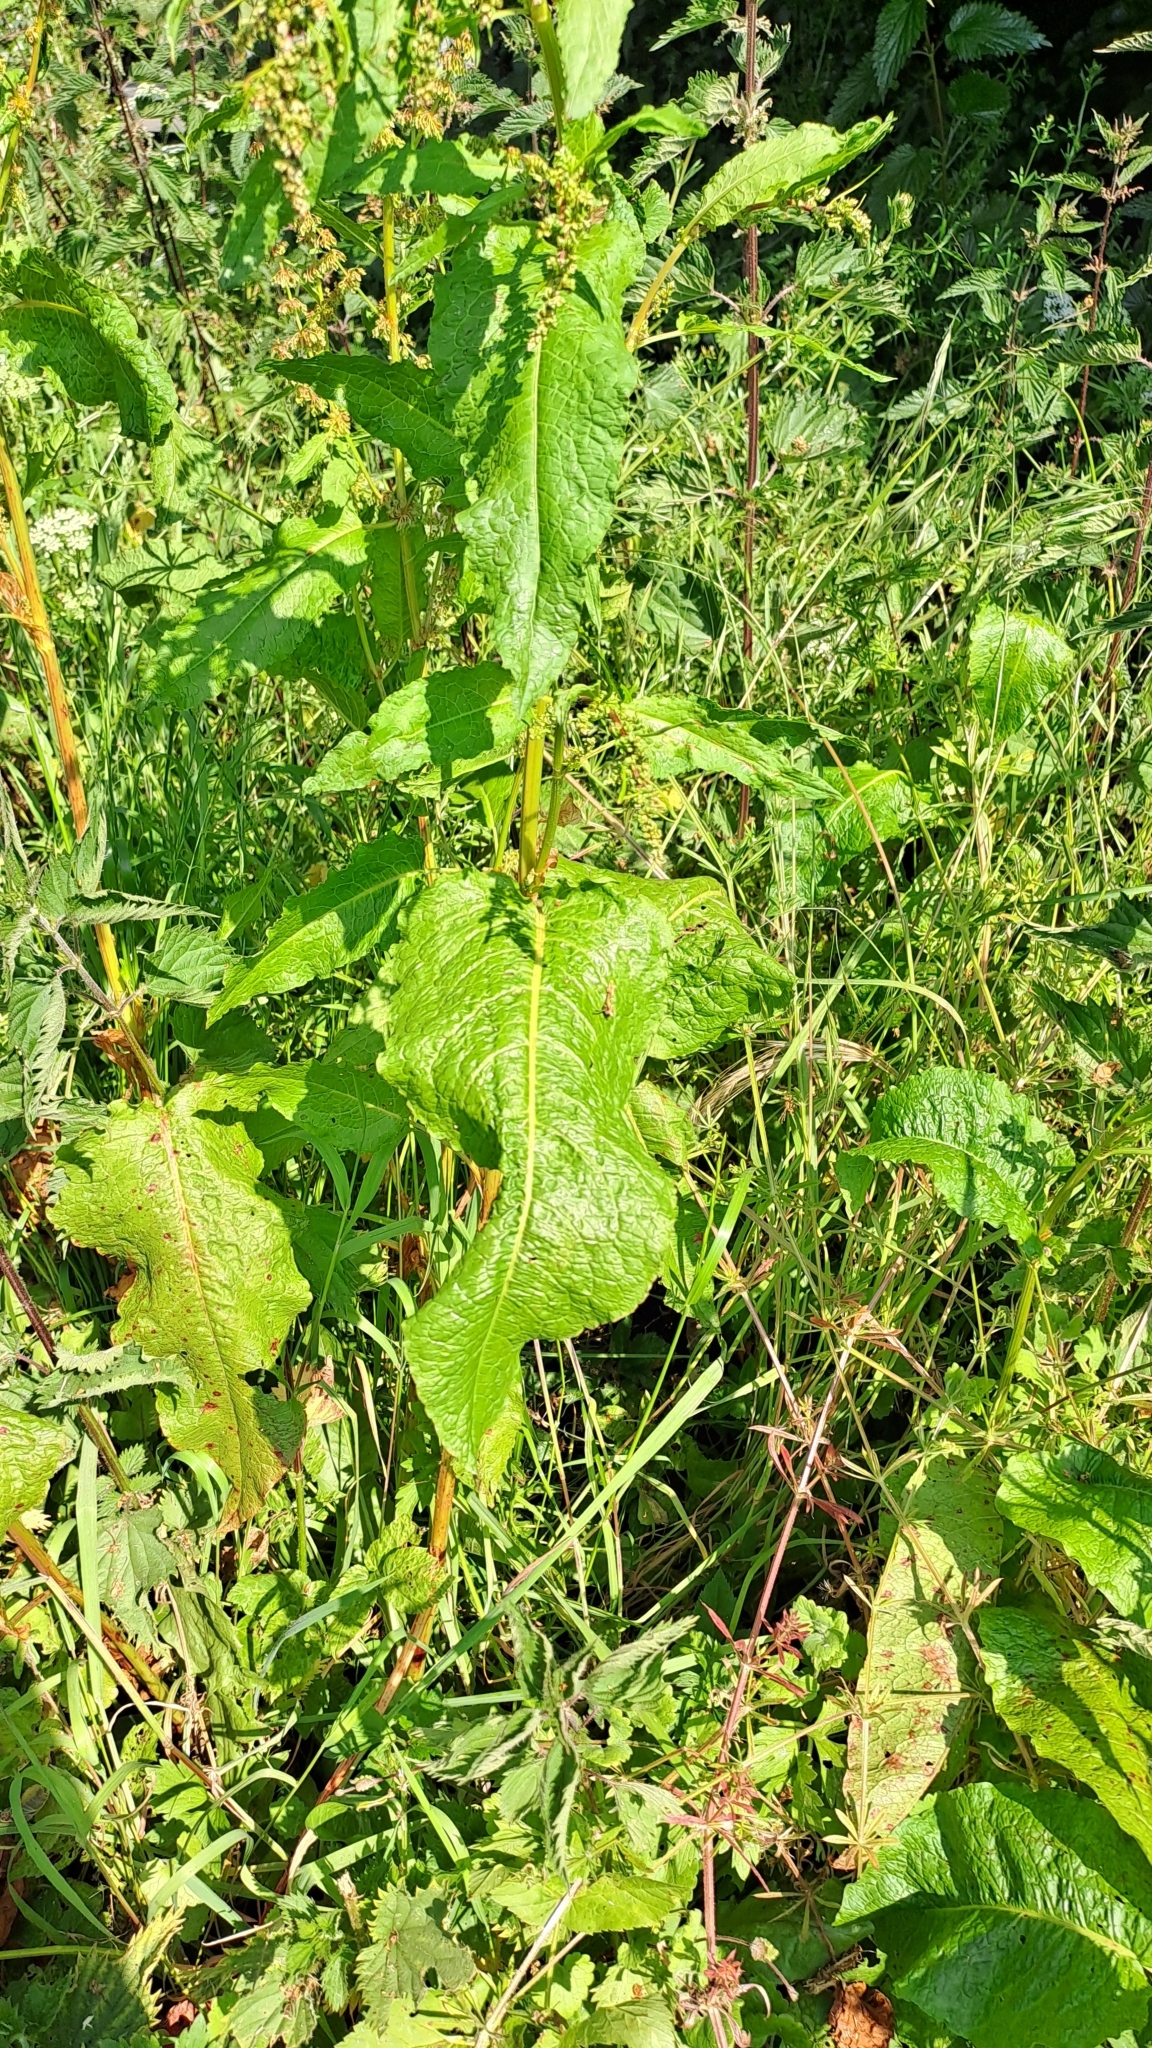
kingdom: Plantae
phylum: Tracheophyta
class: Magnoliopsida
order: Caryophyllales
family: Polygonaceae
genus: Rumex
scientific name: Rumex obtusifolius
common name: Bitter dock
